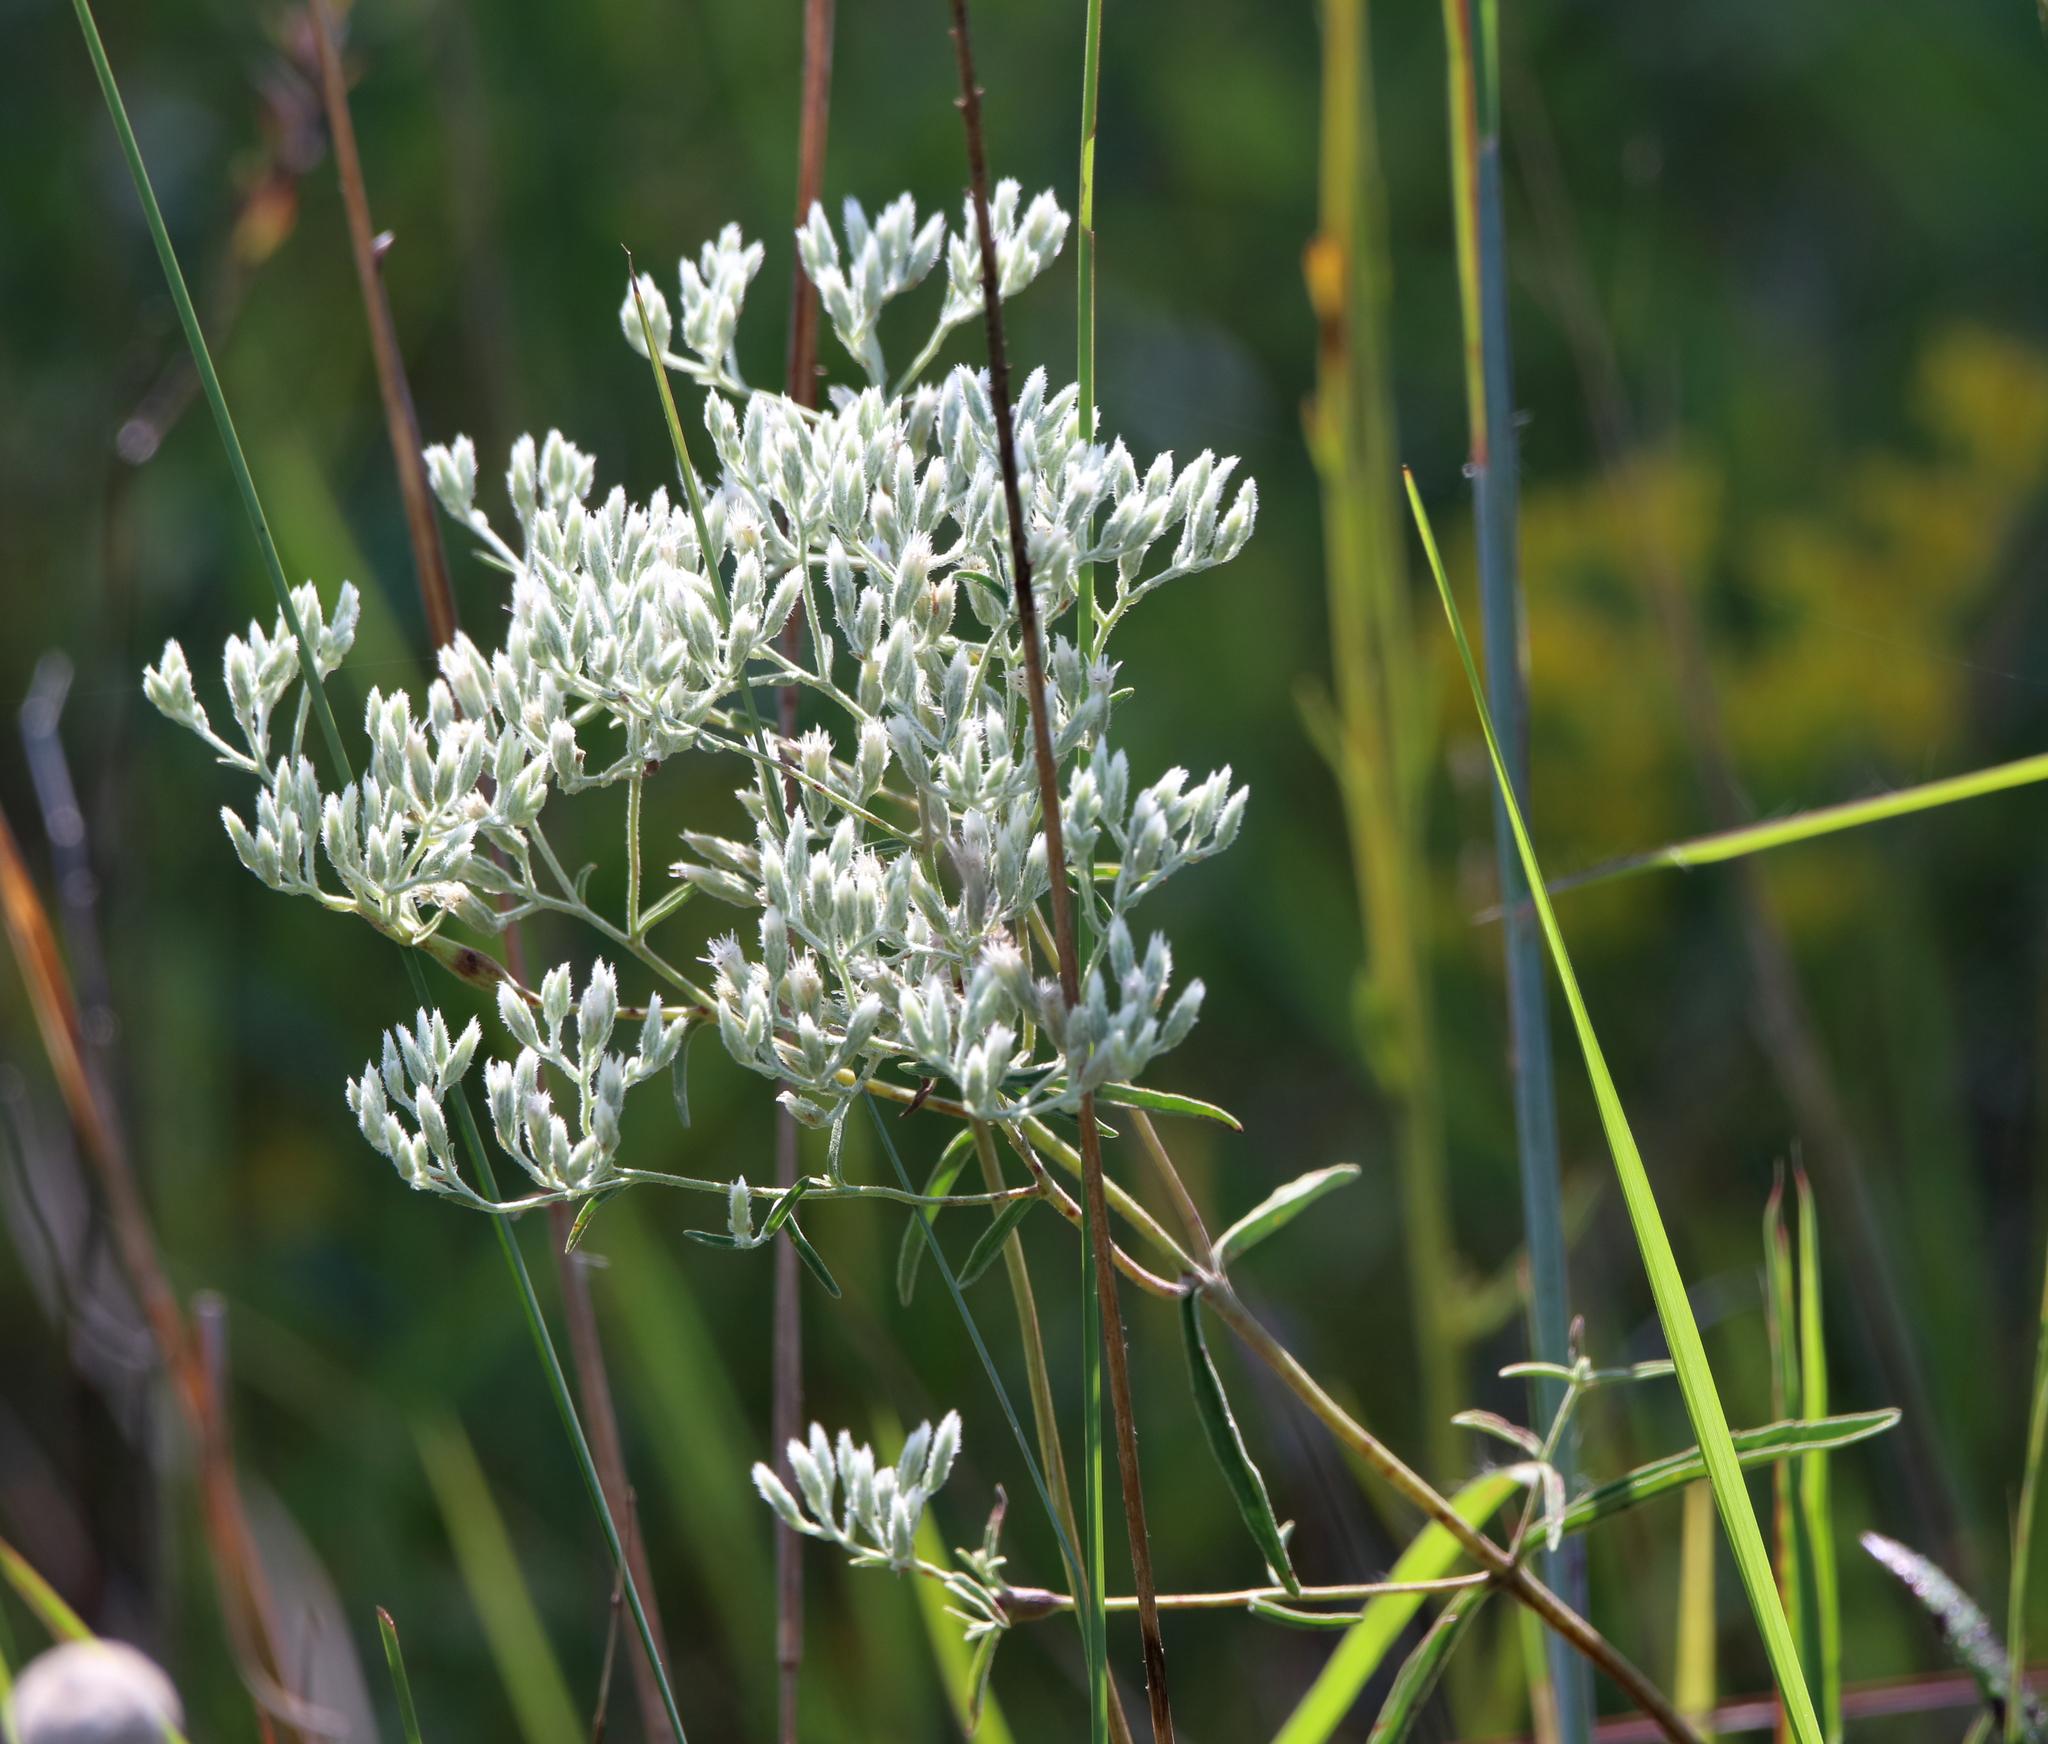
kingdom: Plantae
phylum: Tracheophyta
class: Magnoliopsida
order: Asterales
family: Asteraceae
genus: Eupatorium
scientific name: Eupatorium leucolepis
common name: Justiceweed
